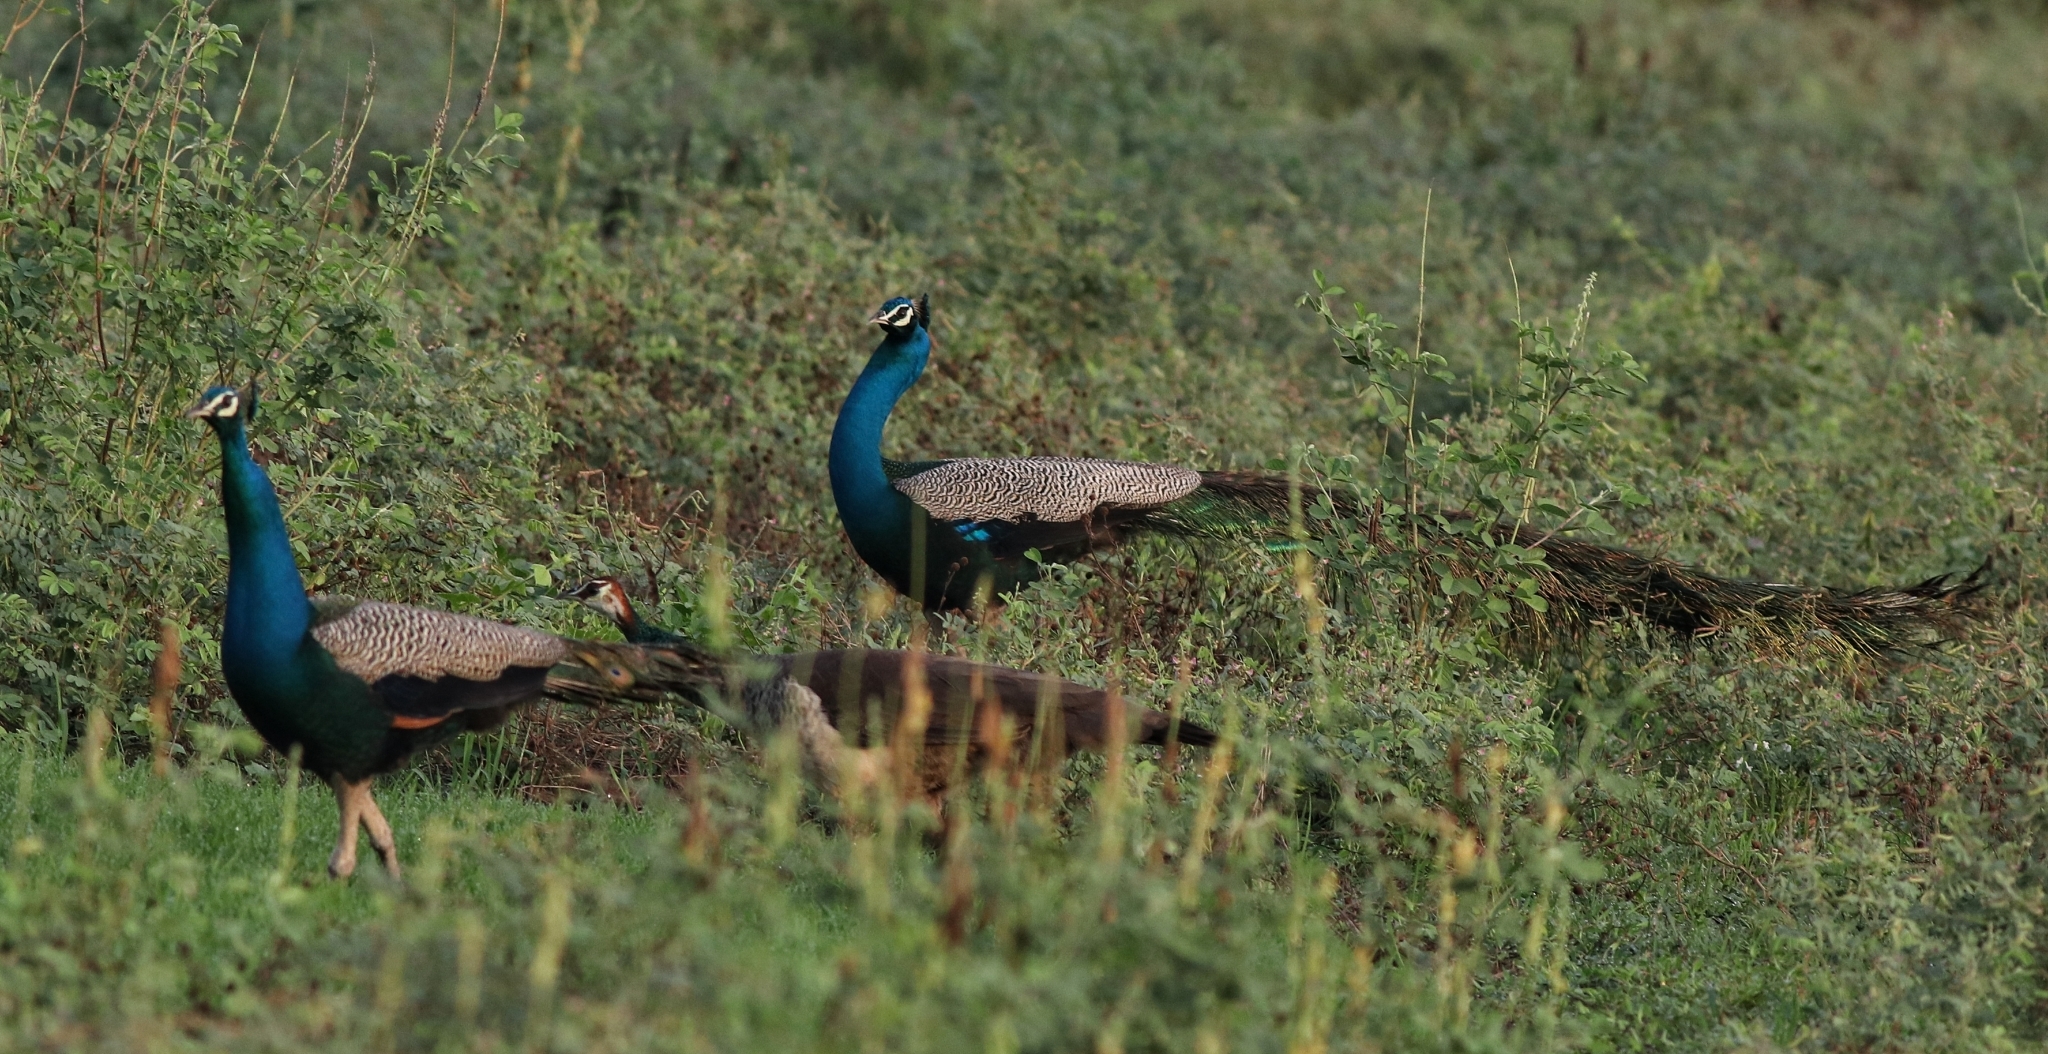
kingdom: Animalia
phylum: Chordata
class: Aves
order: Galliformes
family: Phasianidae
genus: Pavo
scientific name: Pavo cristatus
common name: Indian peafowl
